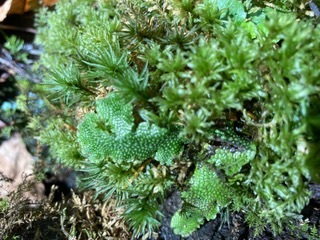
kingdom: Plantae
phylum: Marchantiophyta
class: Marchantiopsida
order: Marchantiales
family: Conocephalaceae
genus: Conocephalum
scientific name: Conocephalum salebrosum
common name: Cat-tongue liverwort
